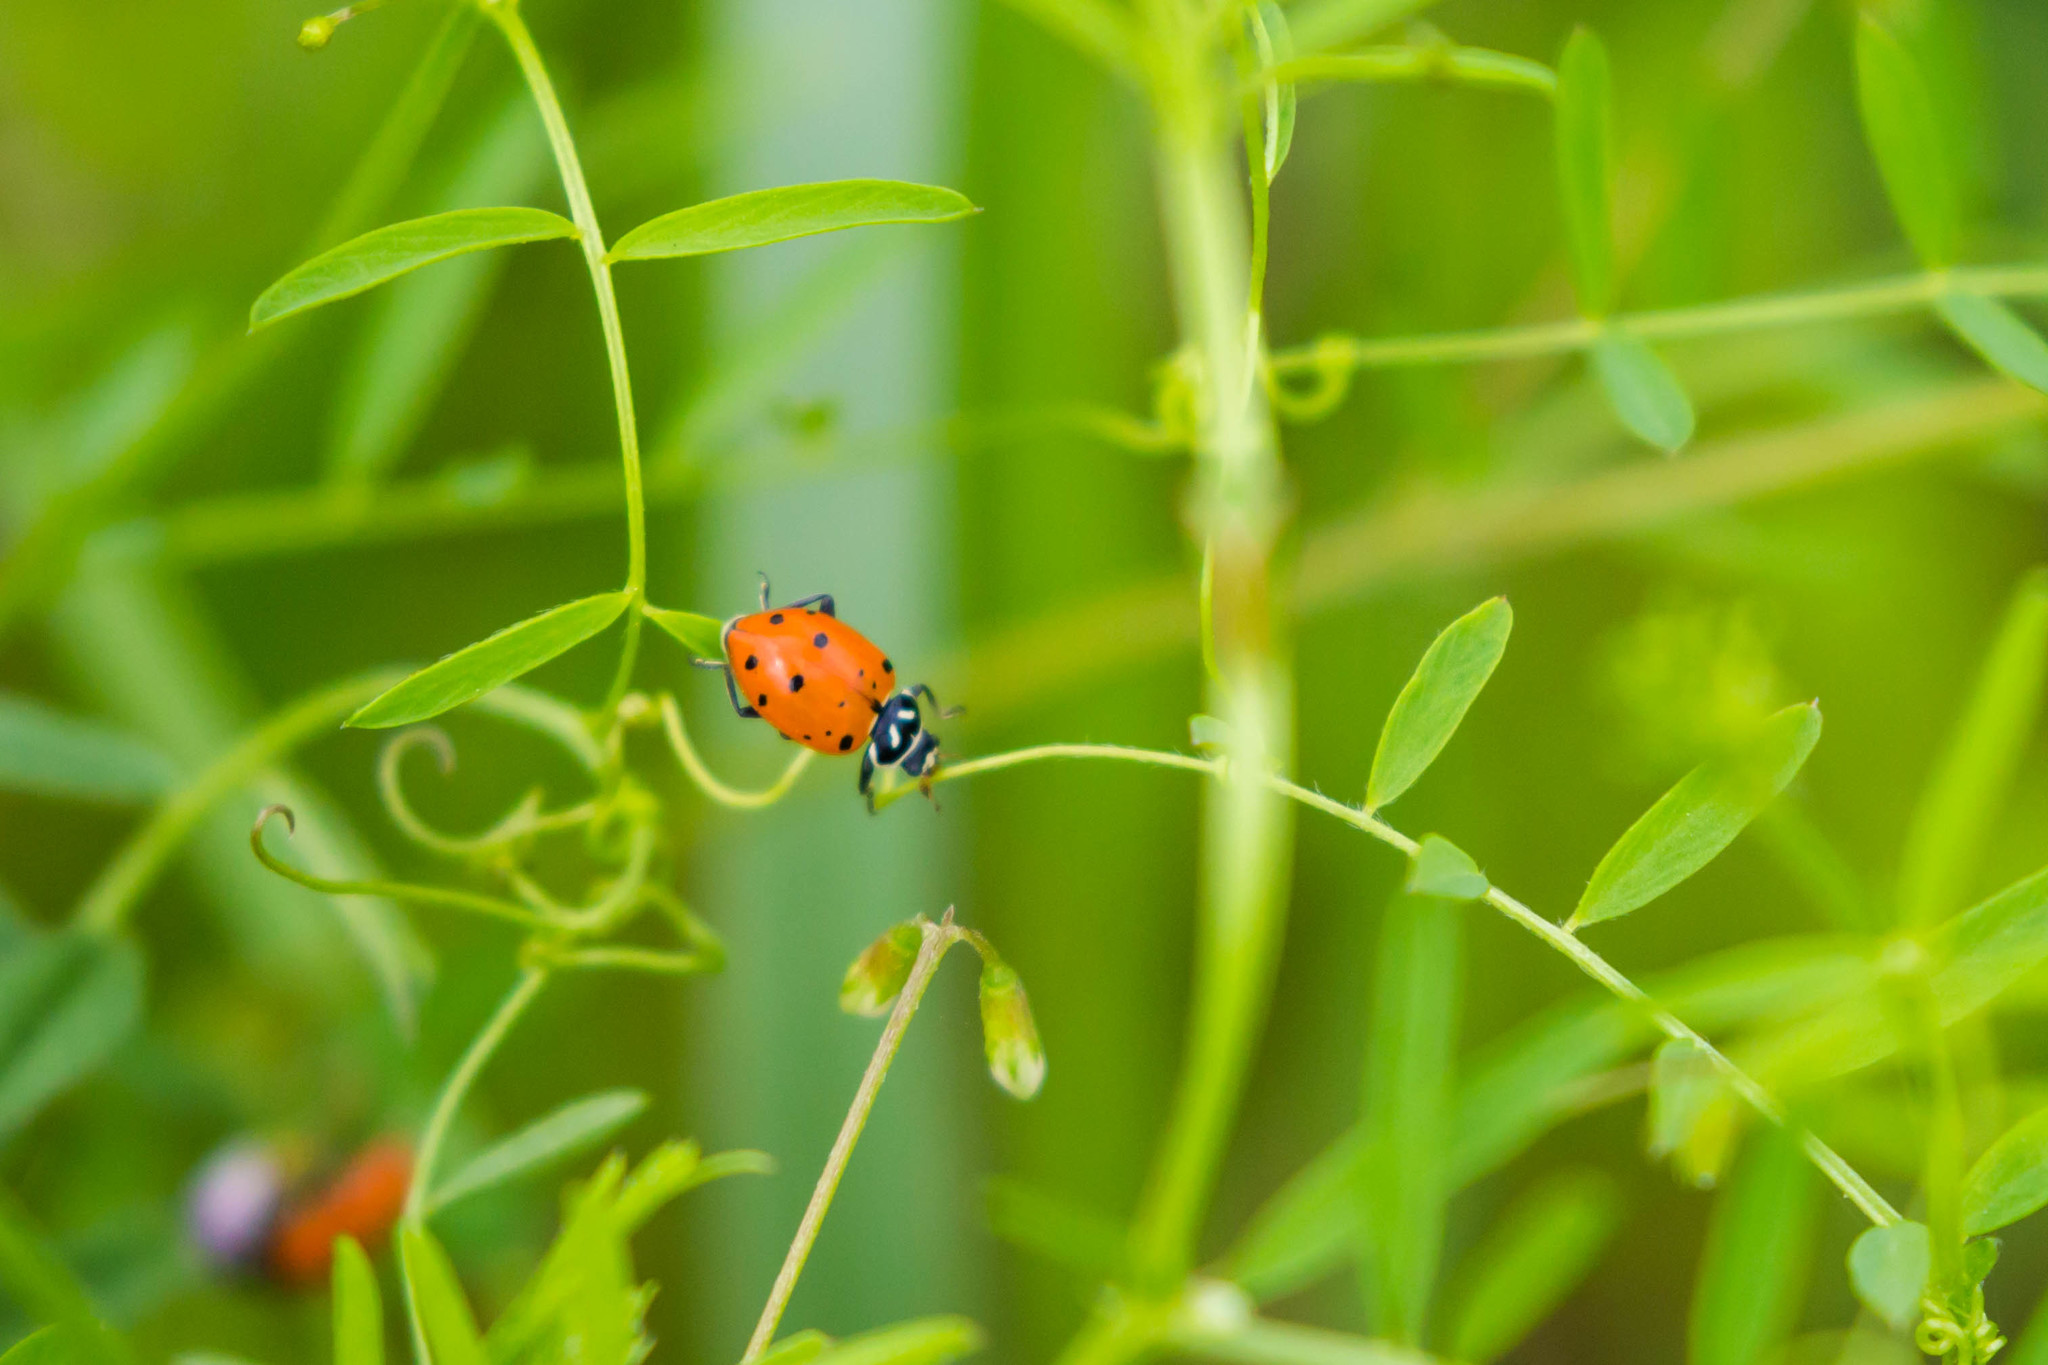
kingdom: Animalia
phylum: Arthropoda
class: Insecta
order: Coleoptera
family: Coccinellidae
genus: Hippodamia
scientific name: Hippodamia convergens
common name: Convergent lady beetle
